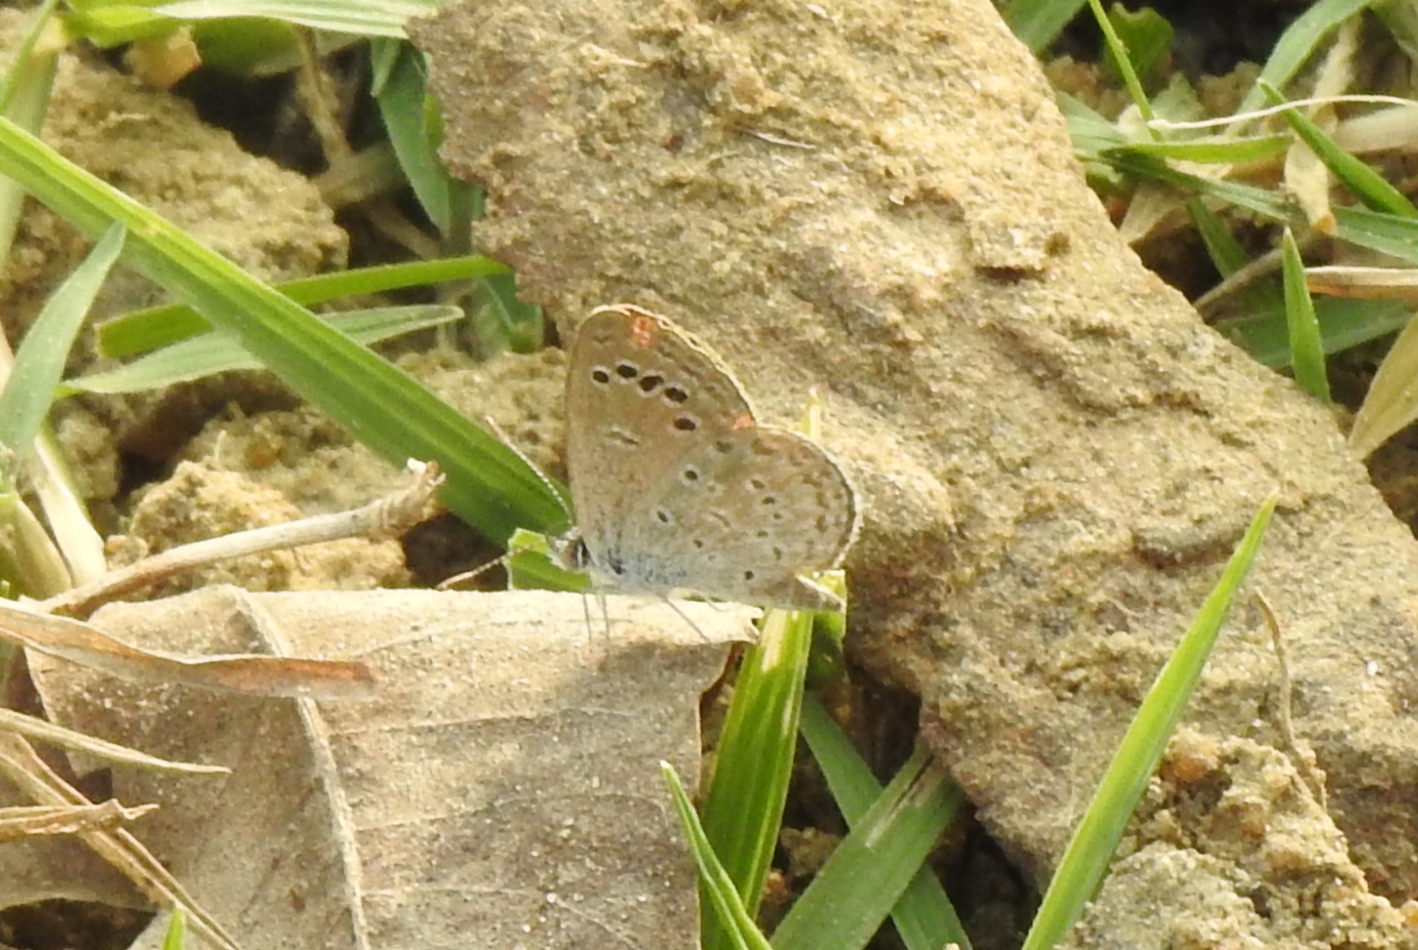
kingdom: Animalia
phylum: Arthropoda
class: Insecta
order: Lepidoptera
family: Lycaenidae
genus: Zizina
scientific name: Zizina otis
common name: Lesser grass blue
